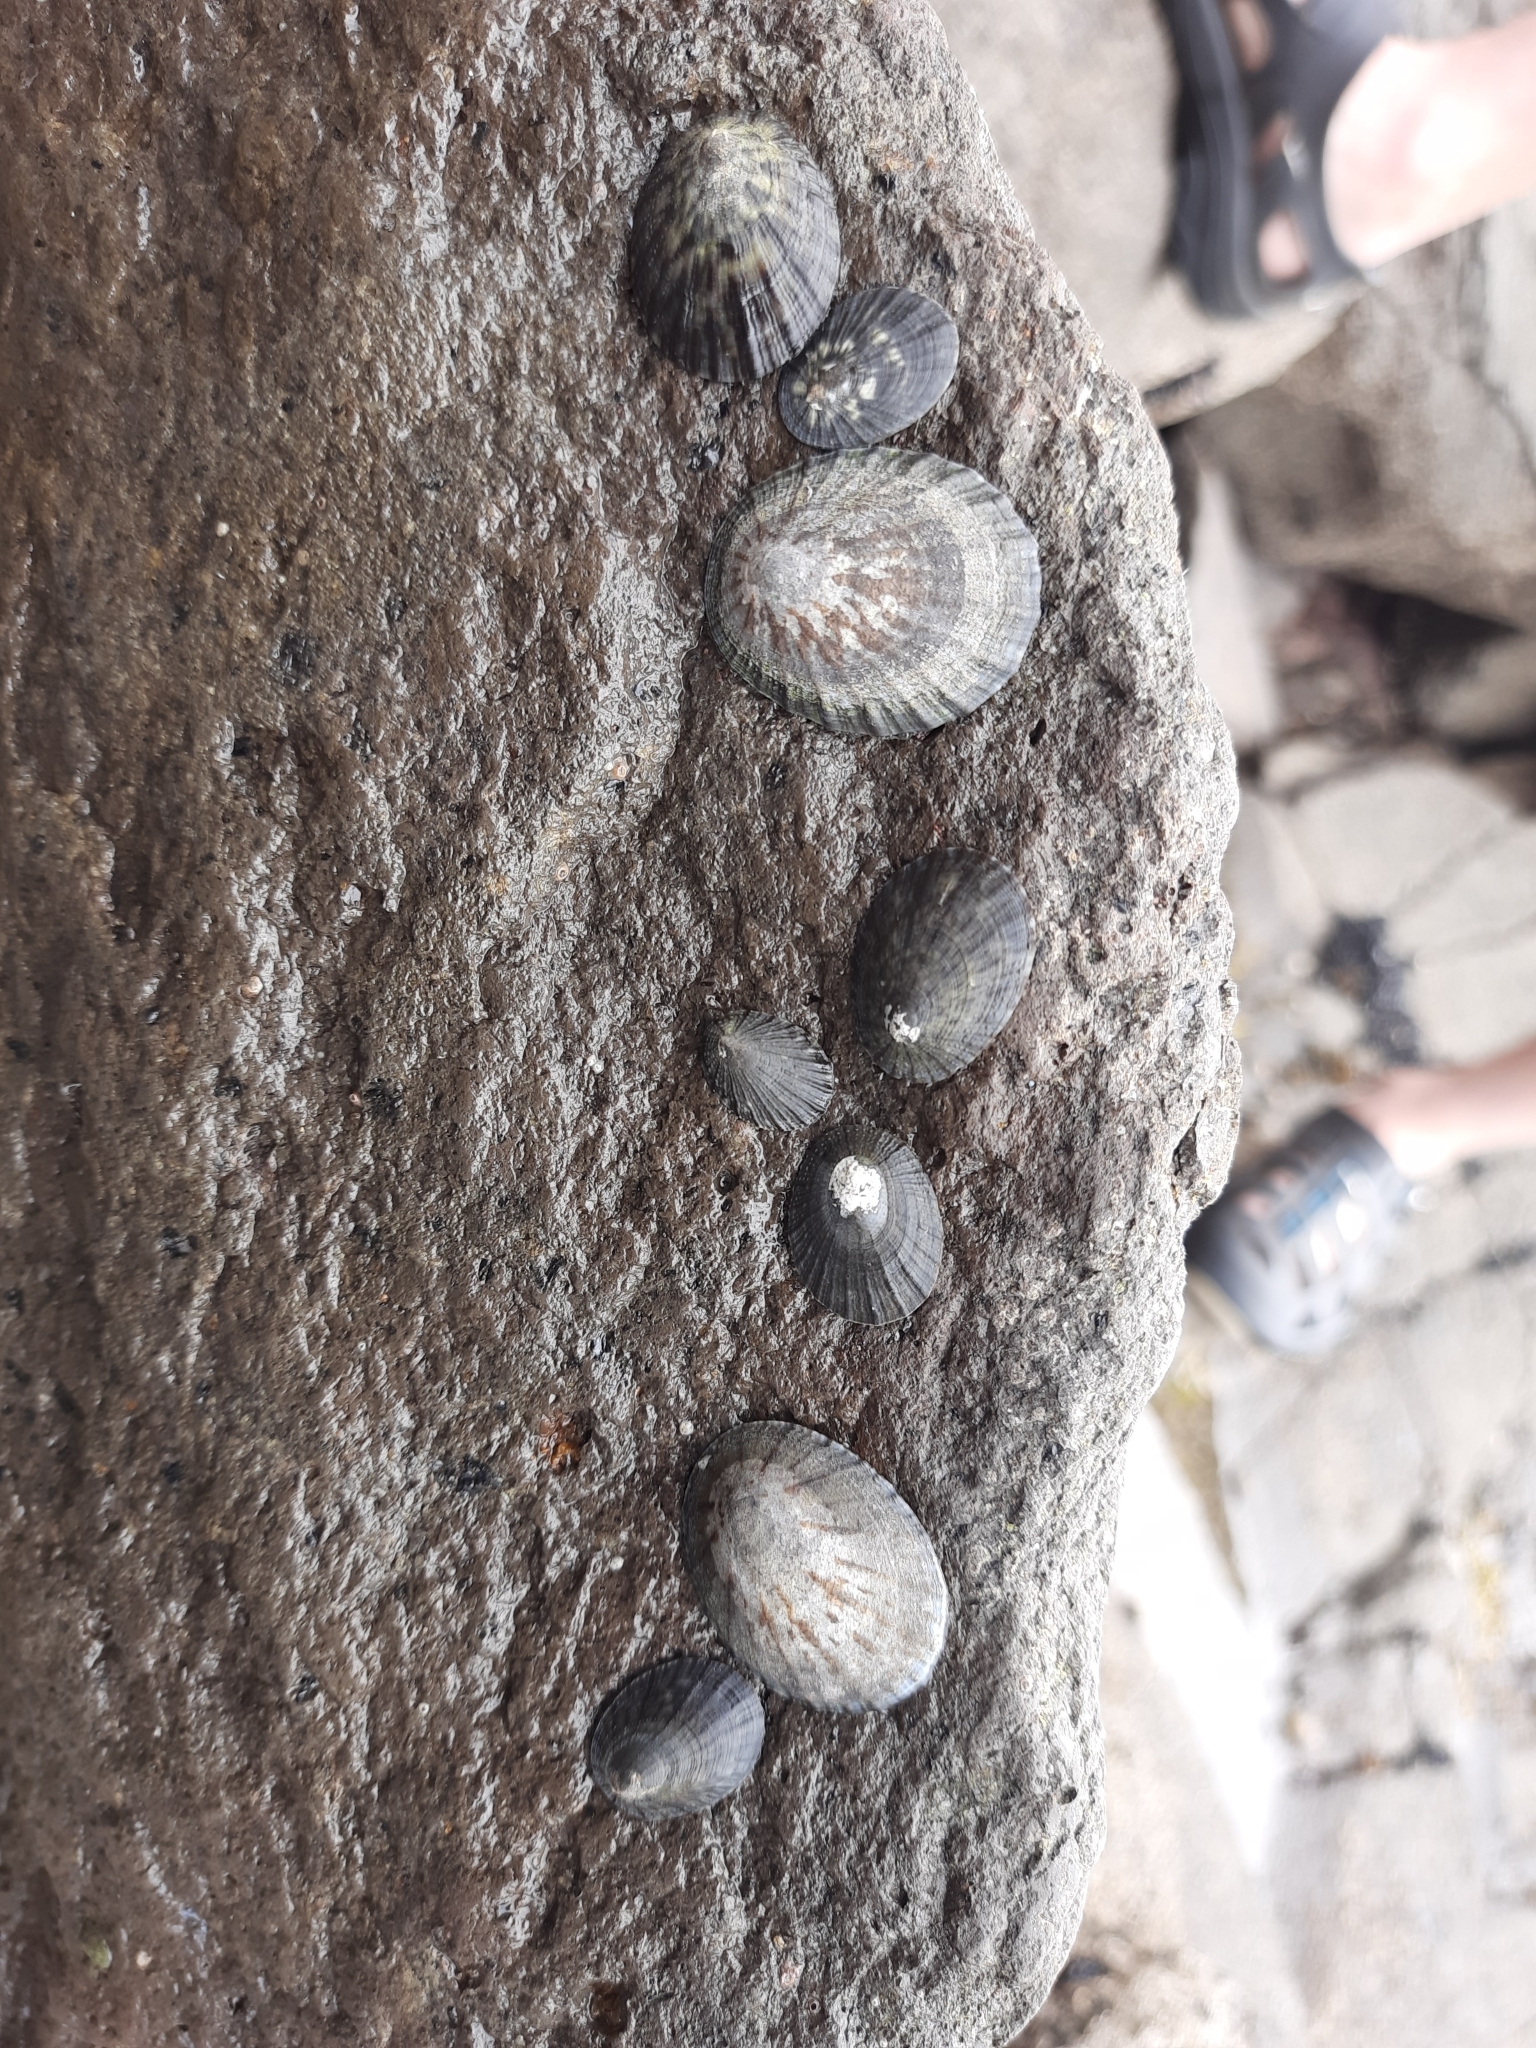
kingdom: Animalia
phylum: Mollusca
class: Gastropoda
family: Nacellidae
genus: Cellana
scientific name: Cellana radians
